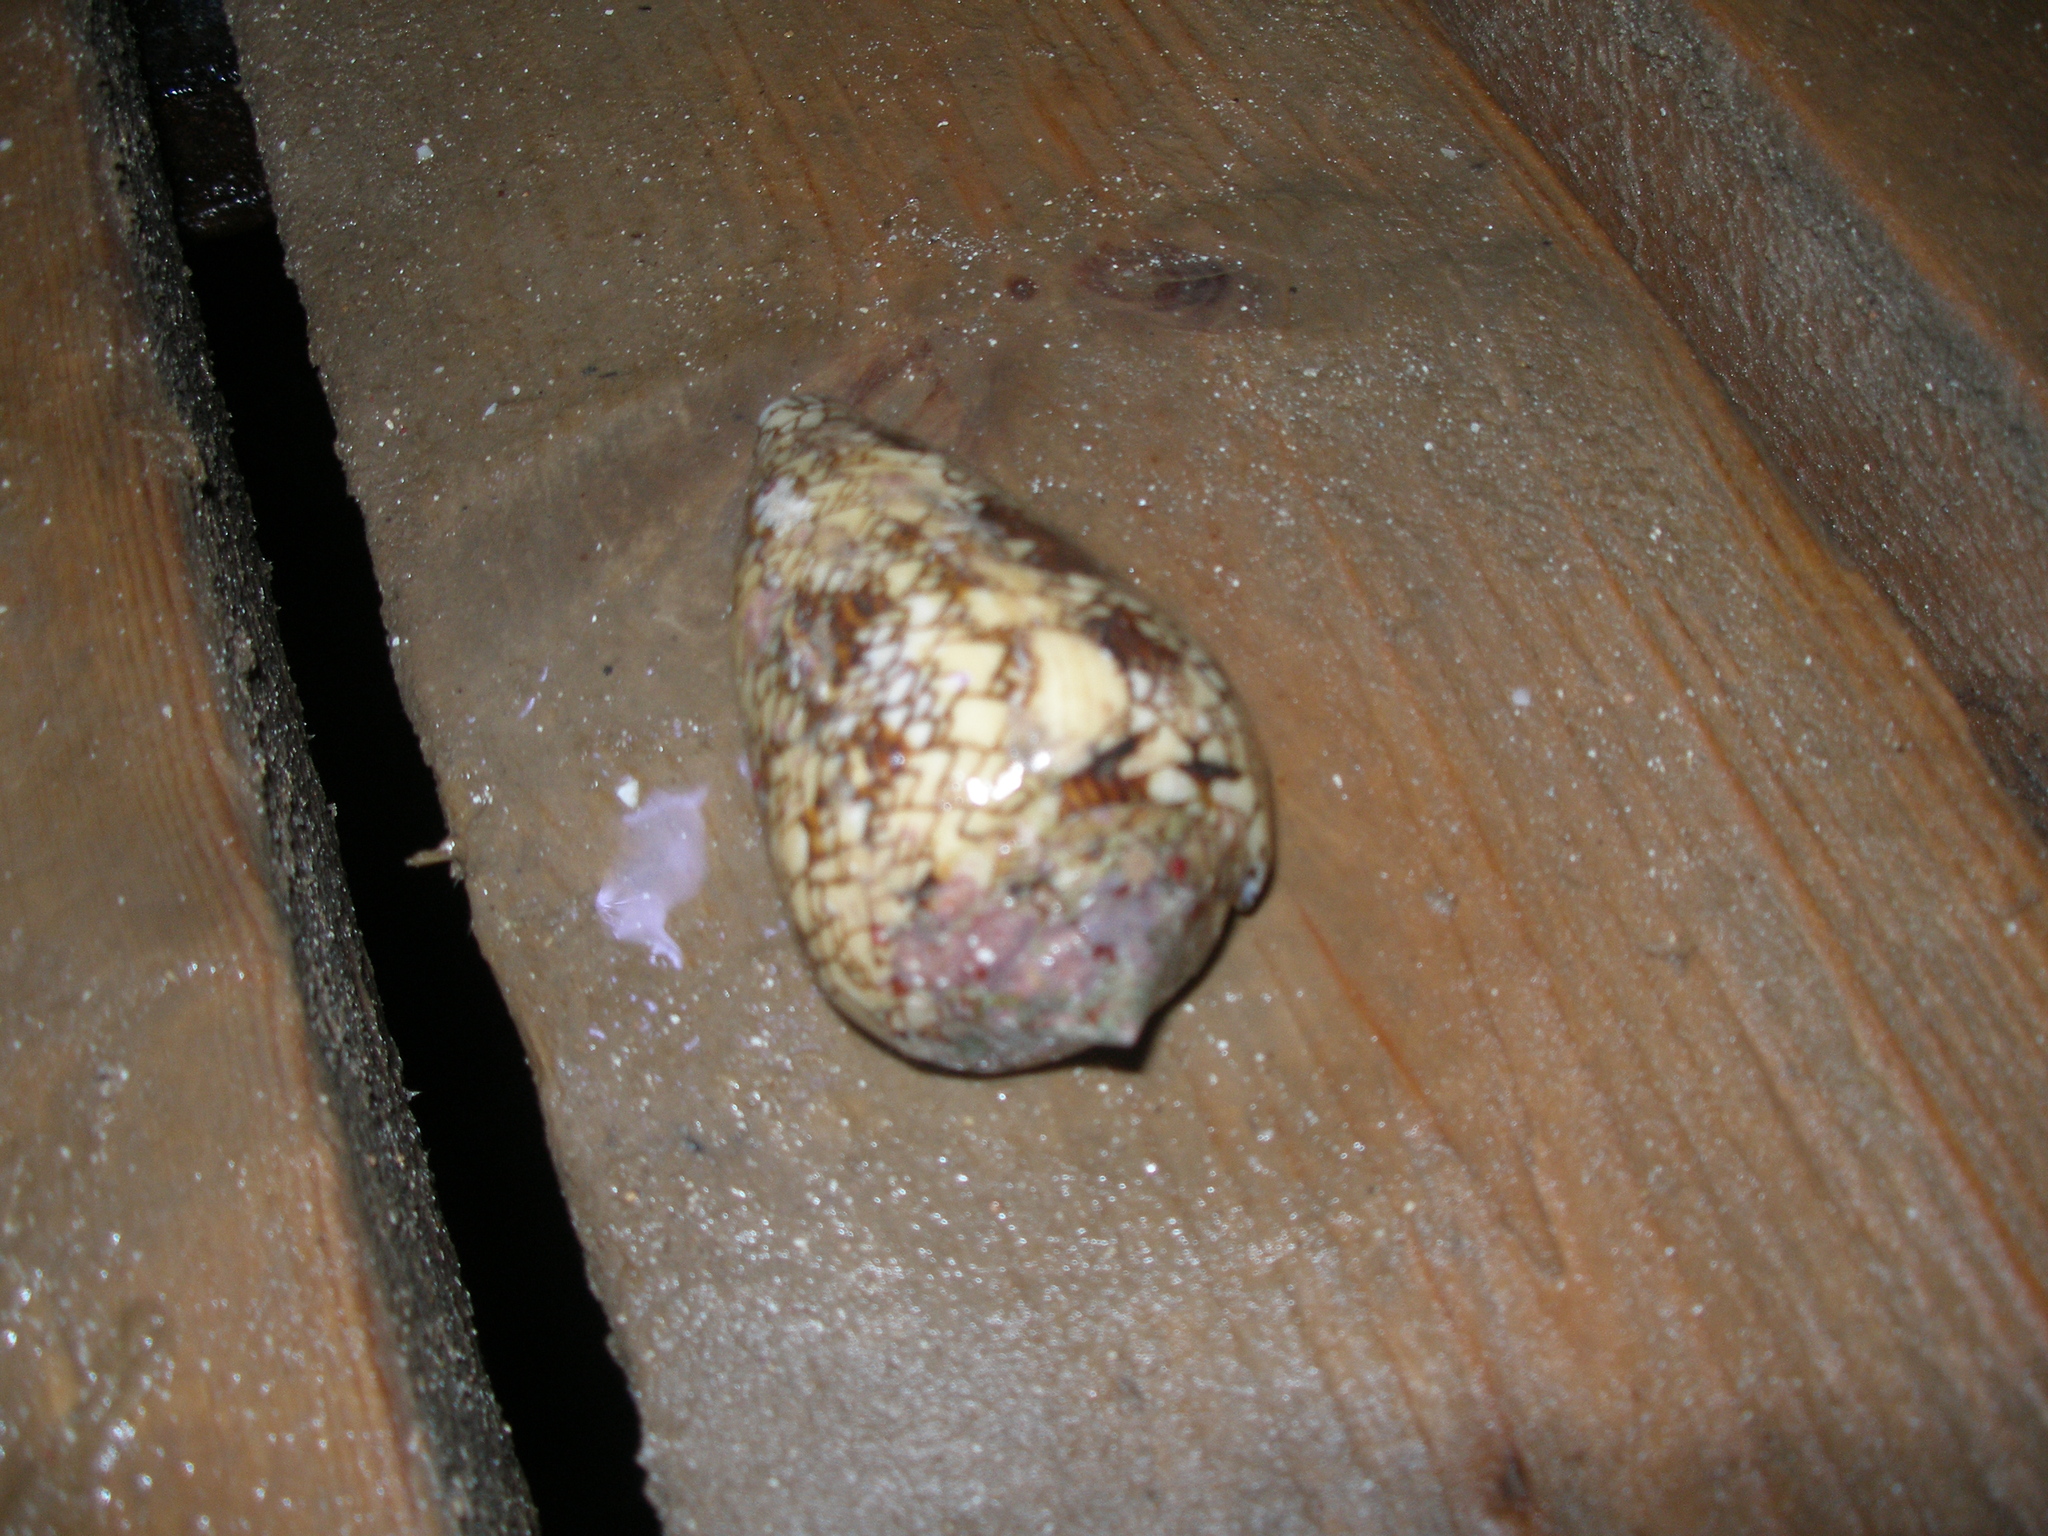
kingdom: Animalia
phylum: Mollusca
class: Gastropoda
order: Neogastropoda
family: Conidae
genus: Conus
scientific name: Conus textile
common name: Cloth-of-gold cone
